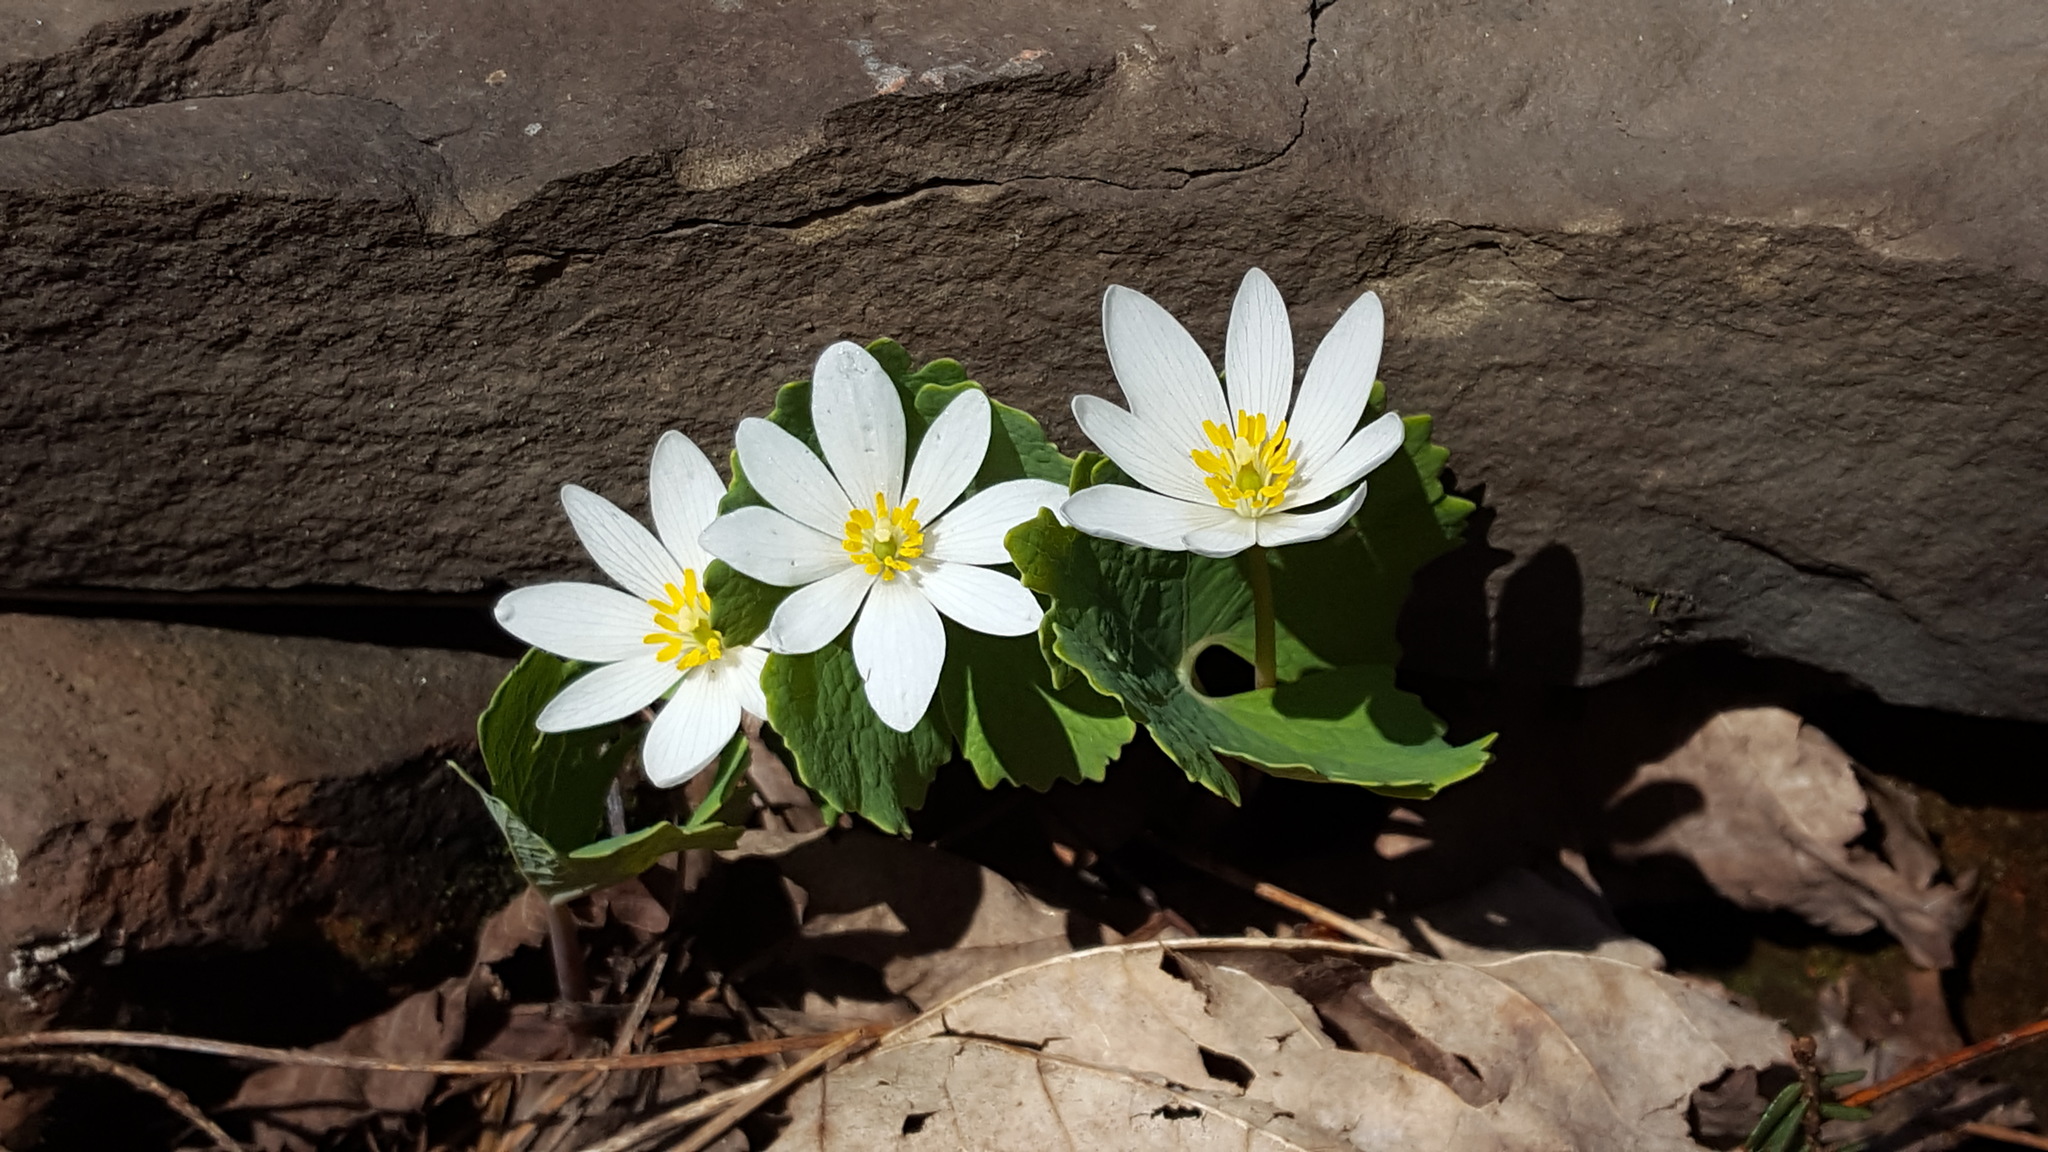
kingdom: Plantae
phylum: Tracheophyta
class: Magnoliopsida
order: Ranunculales
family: Papaveraceae
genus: Sanguinaria
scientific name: Sanguinaria canadensis
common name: Bloodroot
